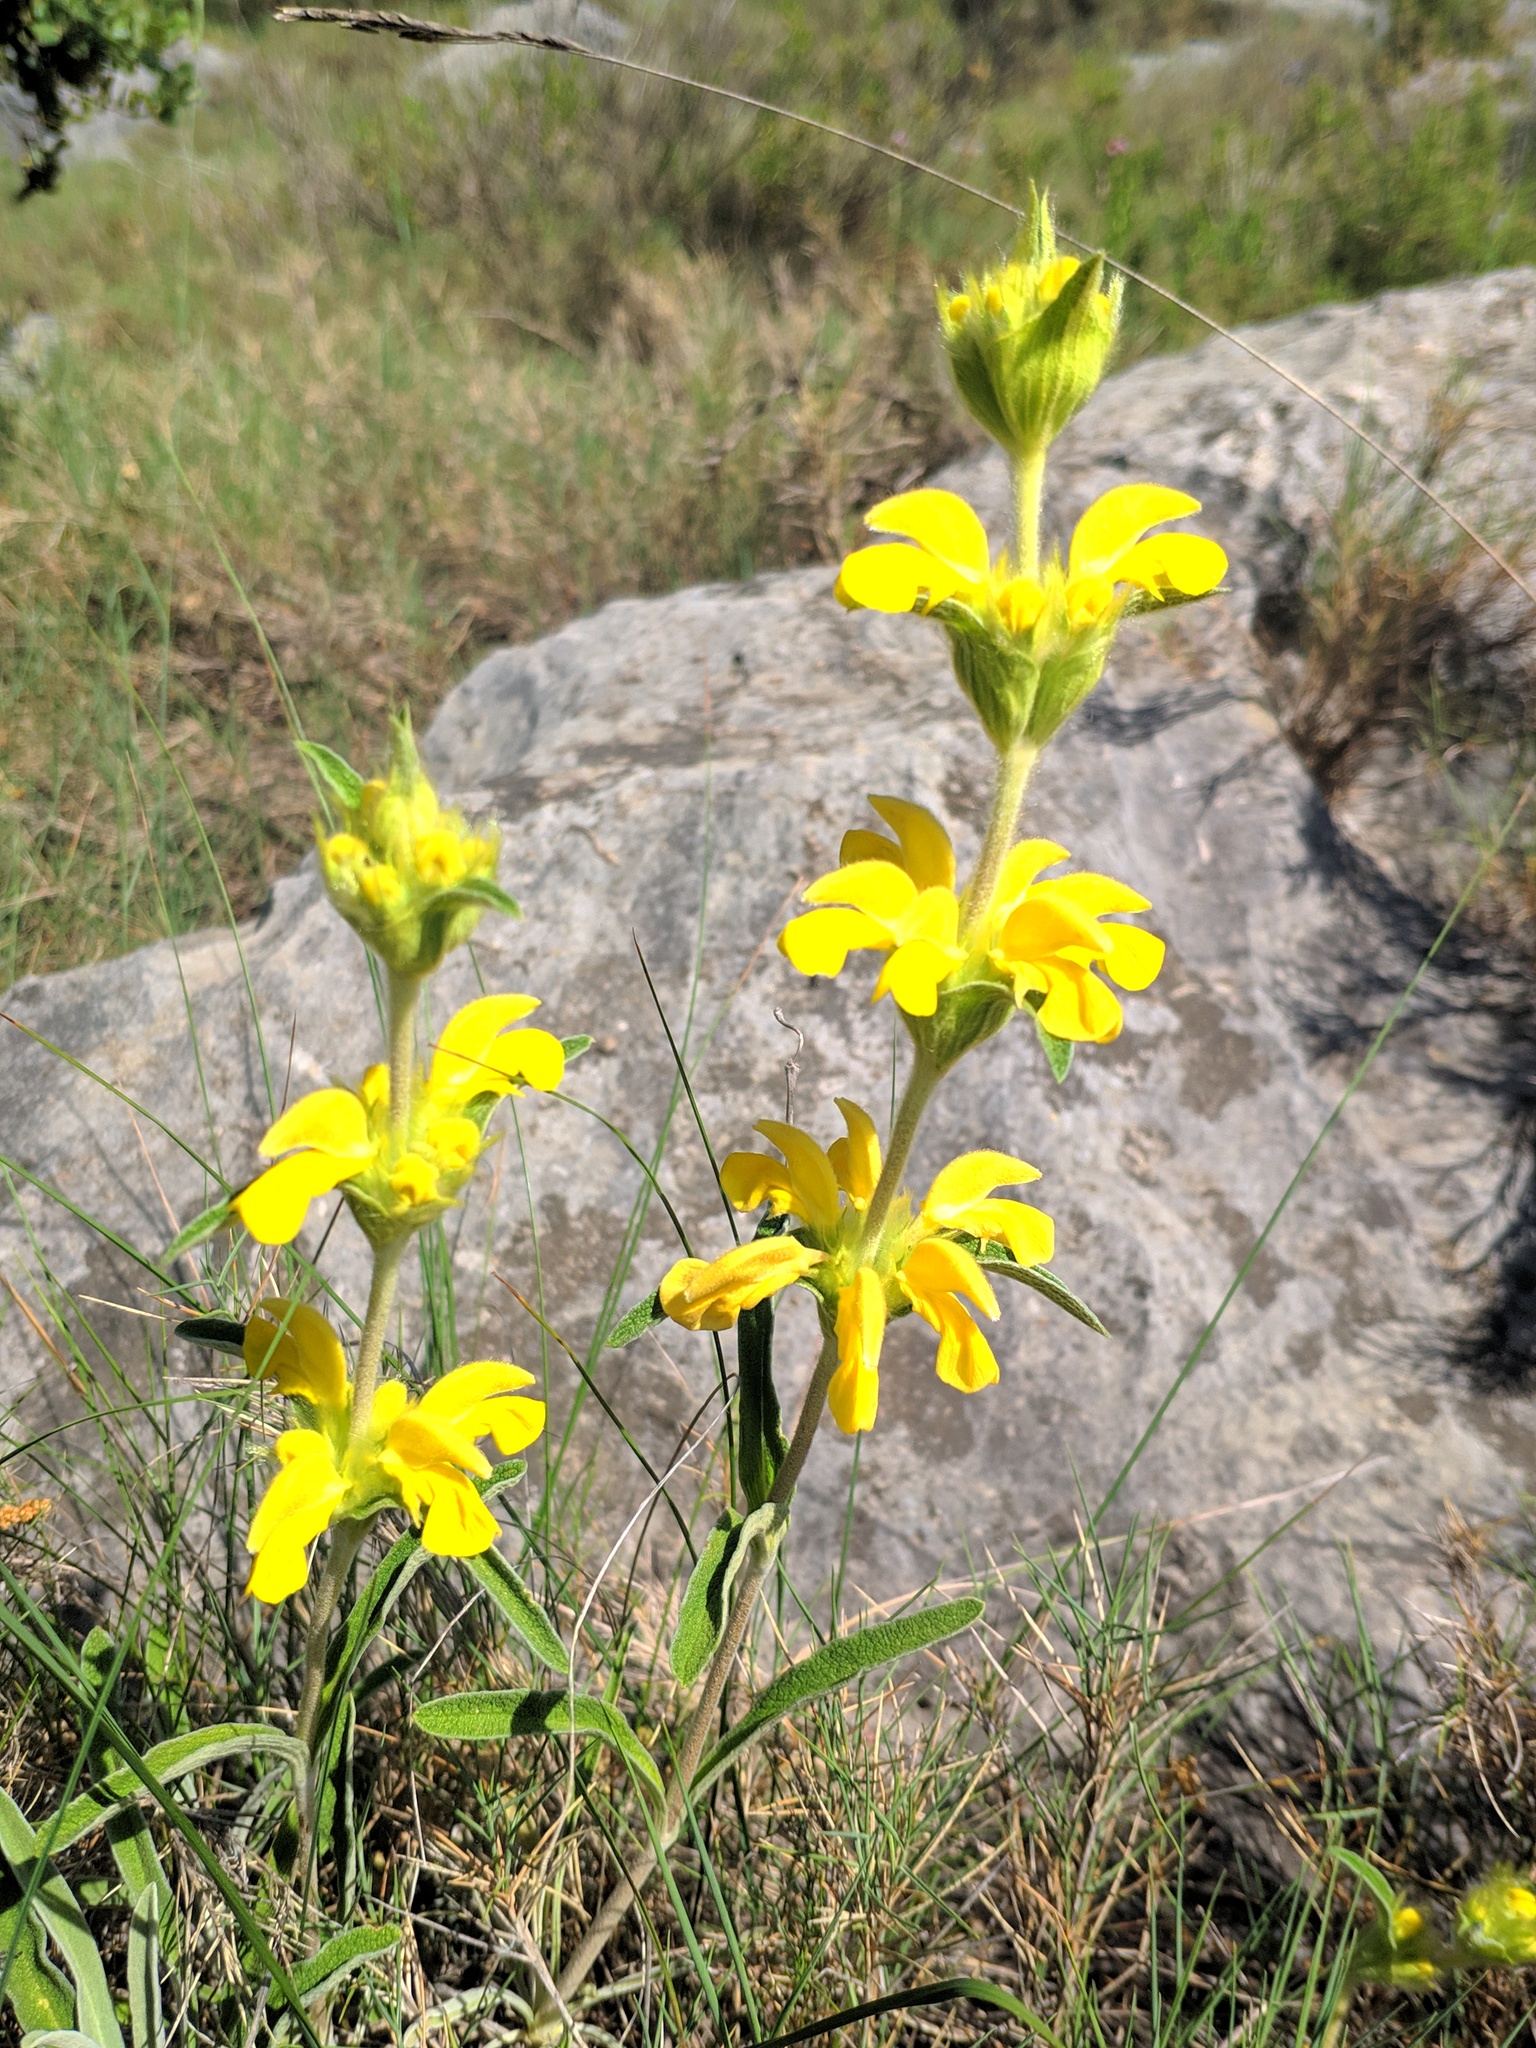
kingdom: Plantae
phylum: Tracheophyta
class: Magnoliopsida
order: Lamiales
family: Lamiaceae
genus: Phlomis
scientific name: Phlomis lychnitis
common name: Lampwickplant
